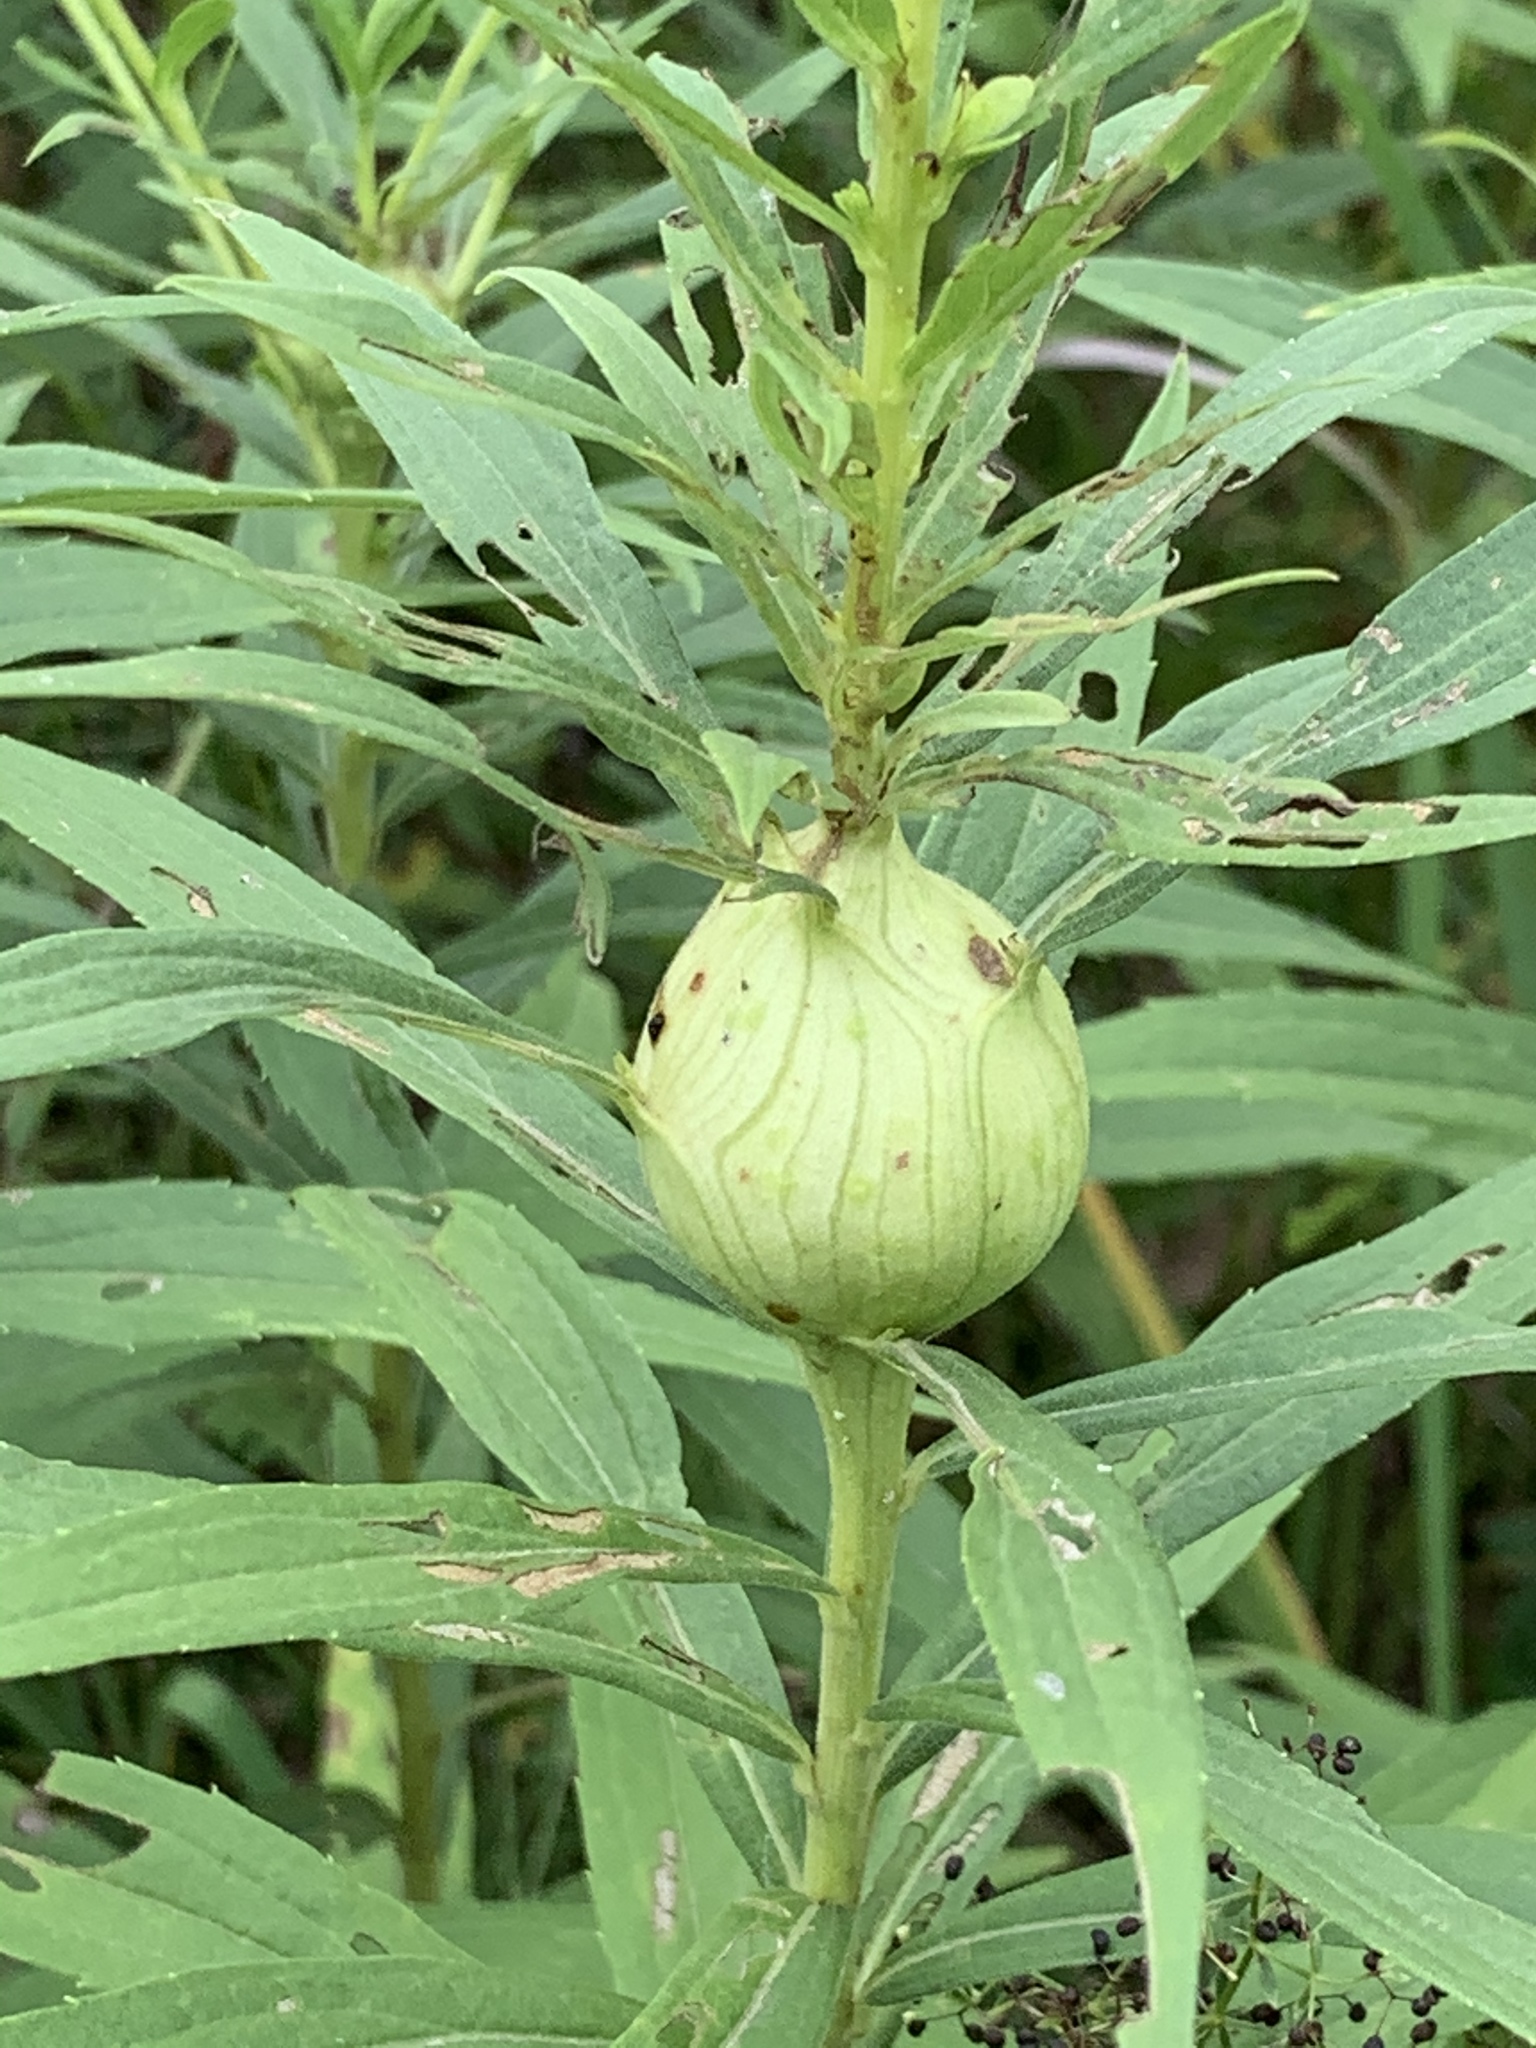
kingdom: Animalia
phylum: Arthropoda
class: Insecta
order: Diptera
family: Tephritidae
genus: Eurosta
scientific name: Eurosta solidaginis
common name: Goldenrod gall fly
